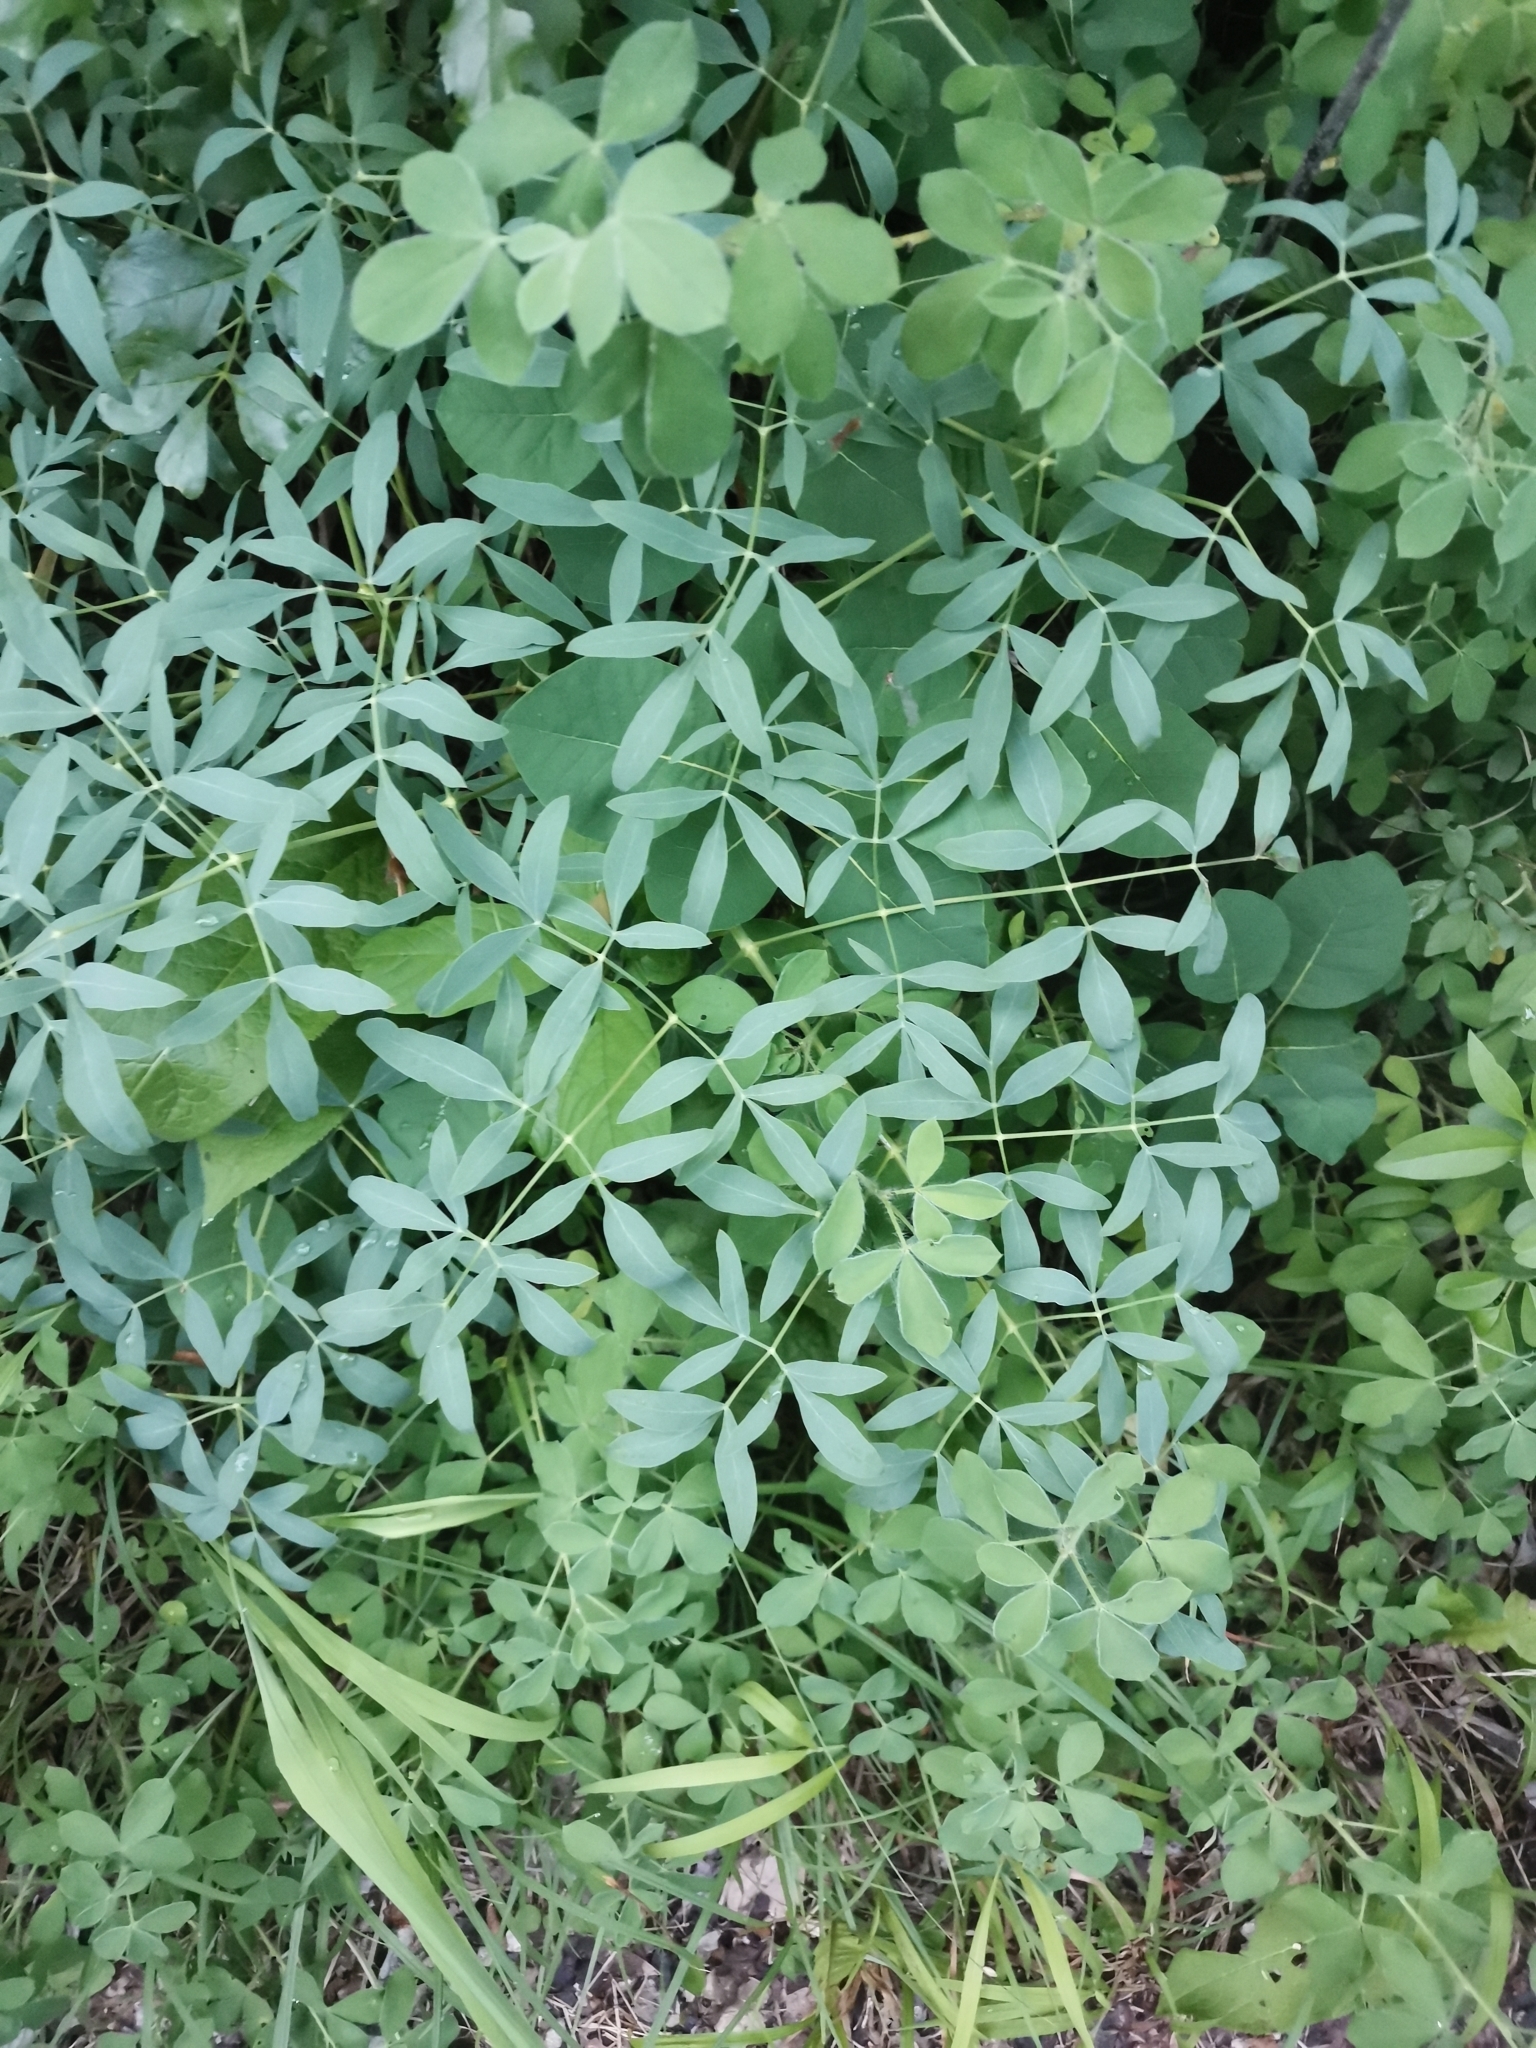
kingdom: Plantae
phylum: Tracheophyta
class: Magnoliopsida
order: Apiales
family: Apiaceae
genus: Siler
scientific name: Siler montanum
